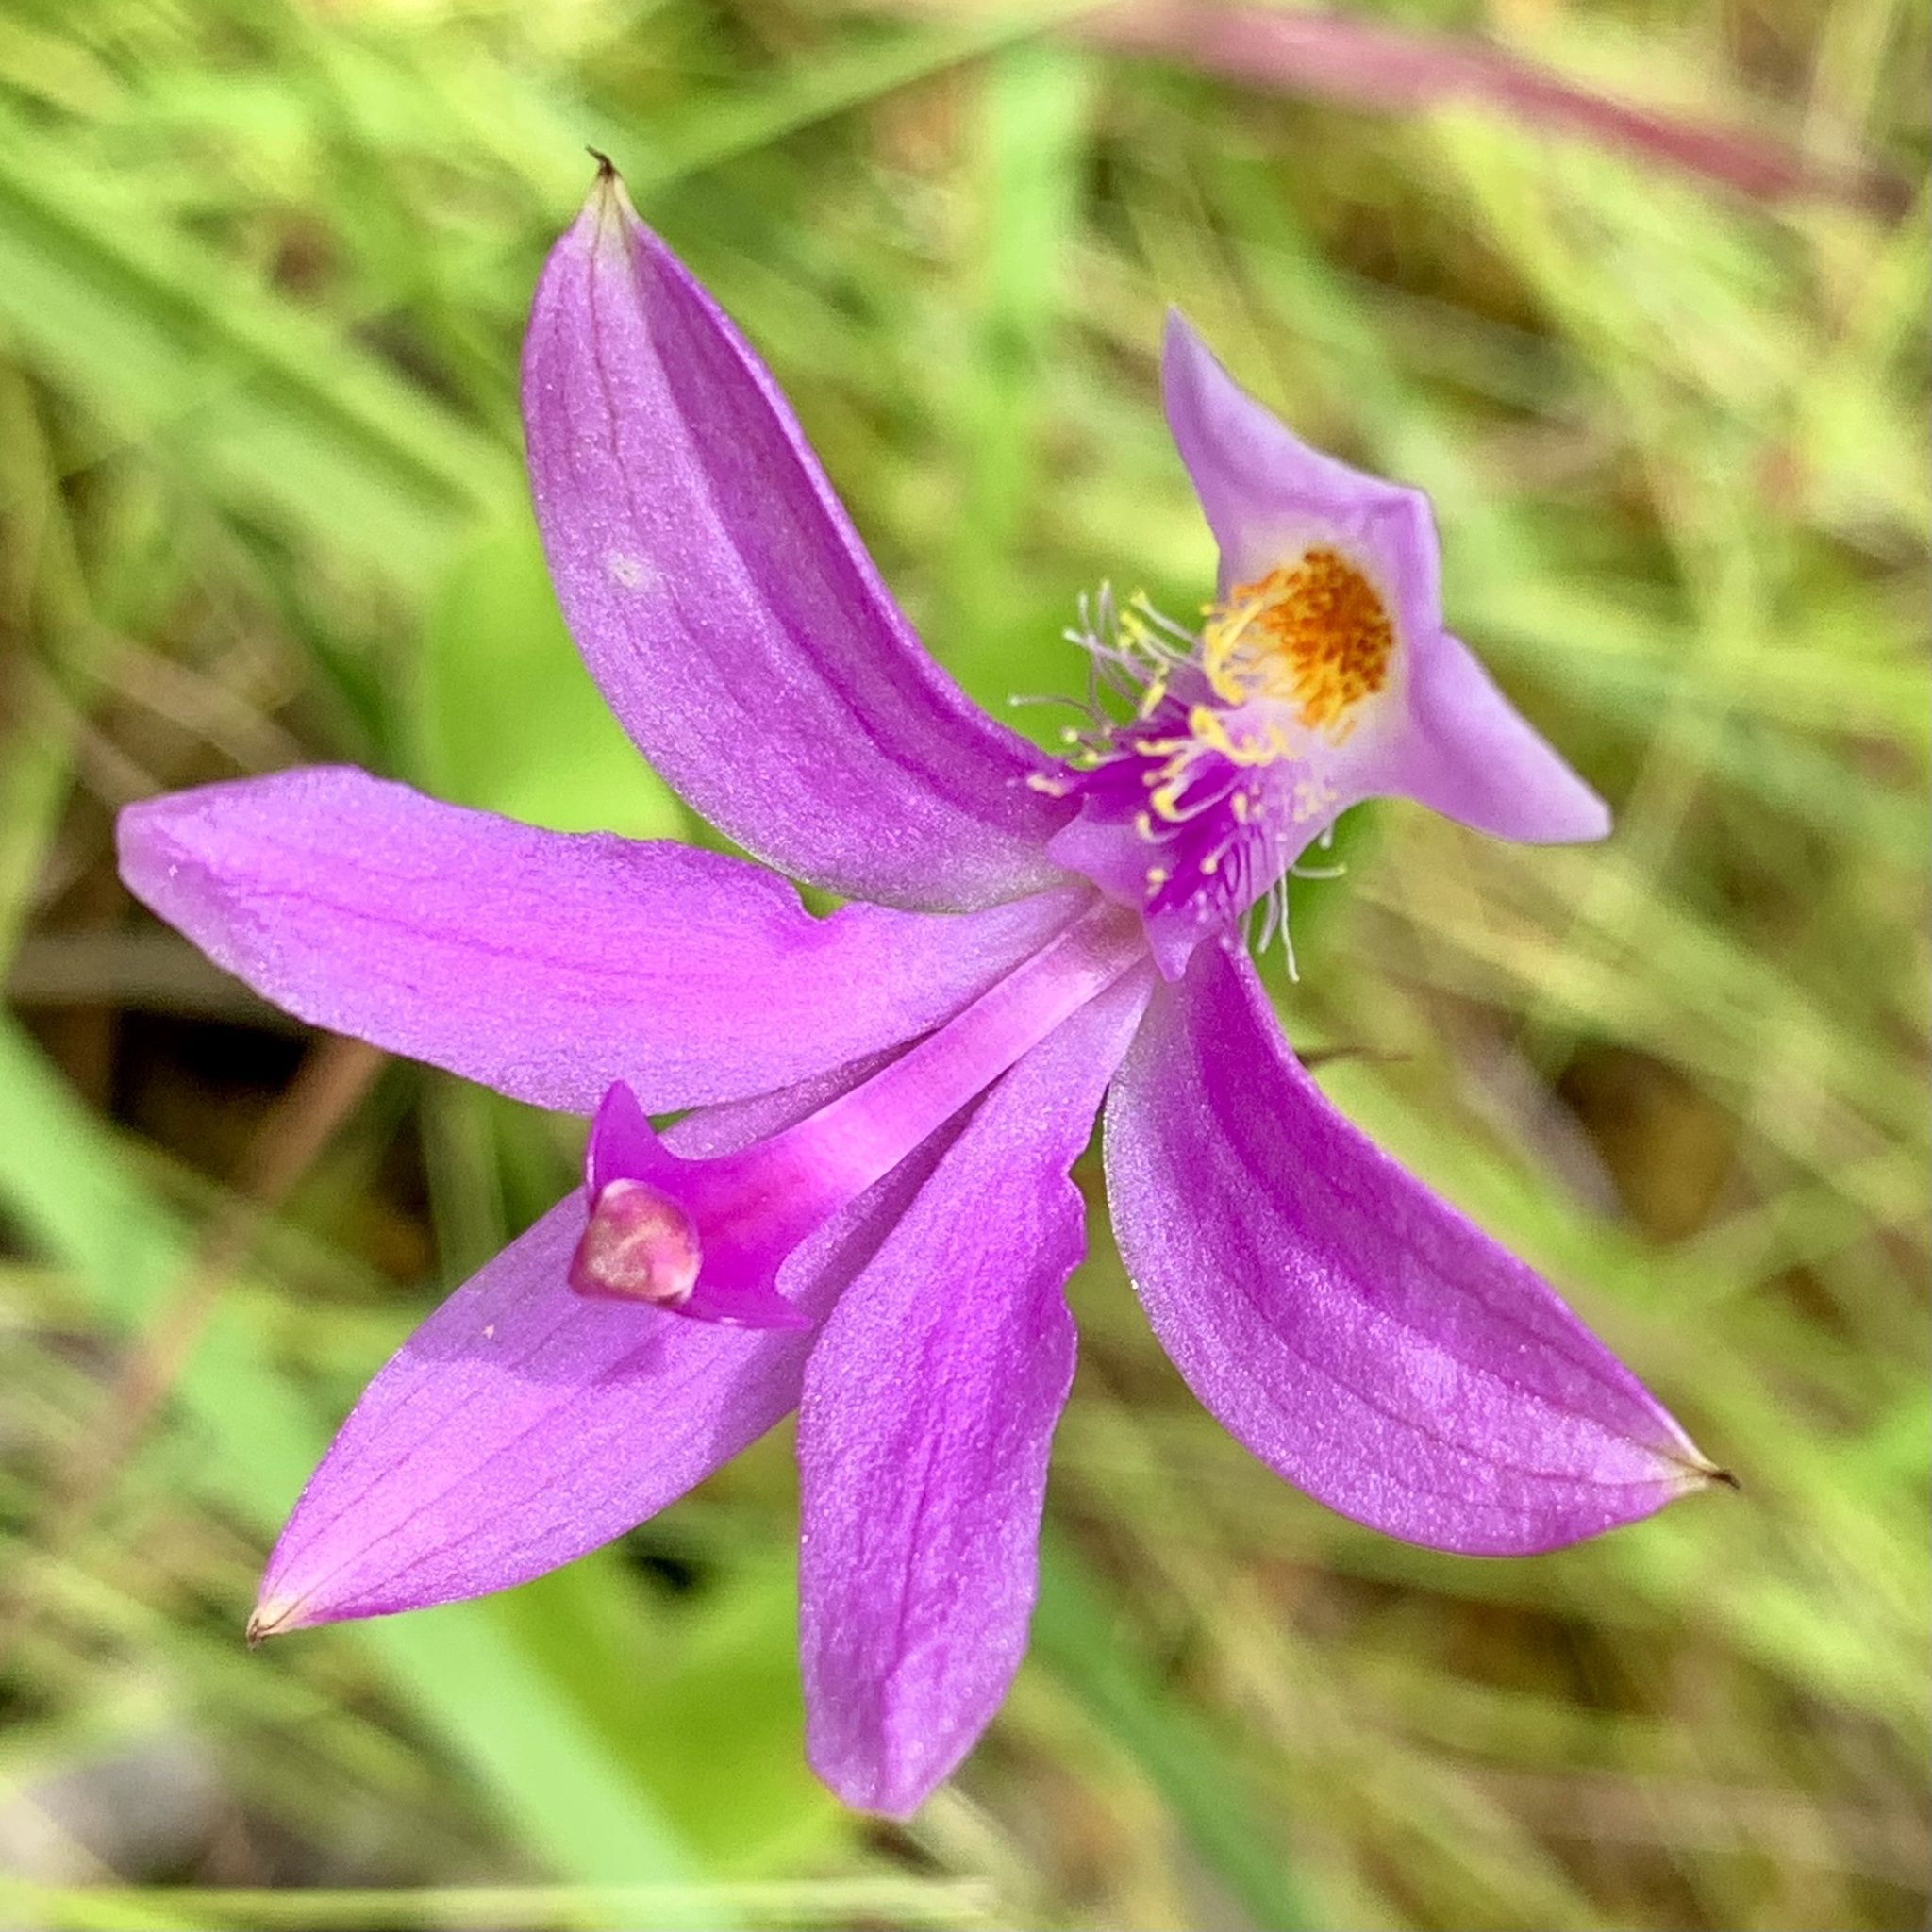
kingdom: Plantae
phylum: Tracheophyta
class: Liliopsida
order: Asparagales
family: Orchidaceae
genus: Calopogon
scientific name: Calopogon tuberosus
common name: Grass-pink
